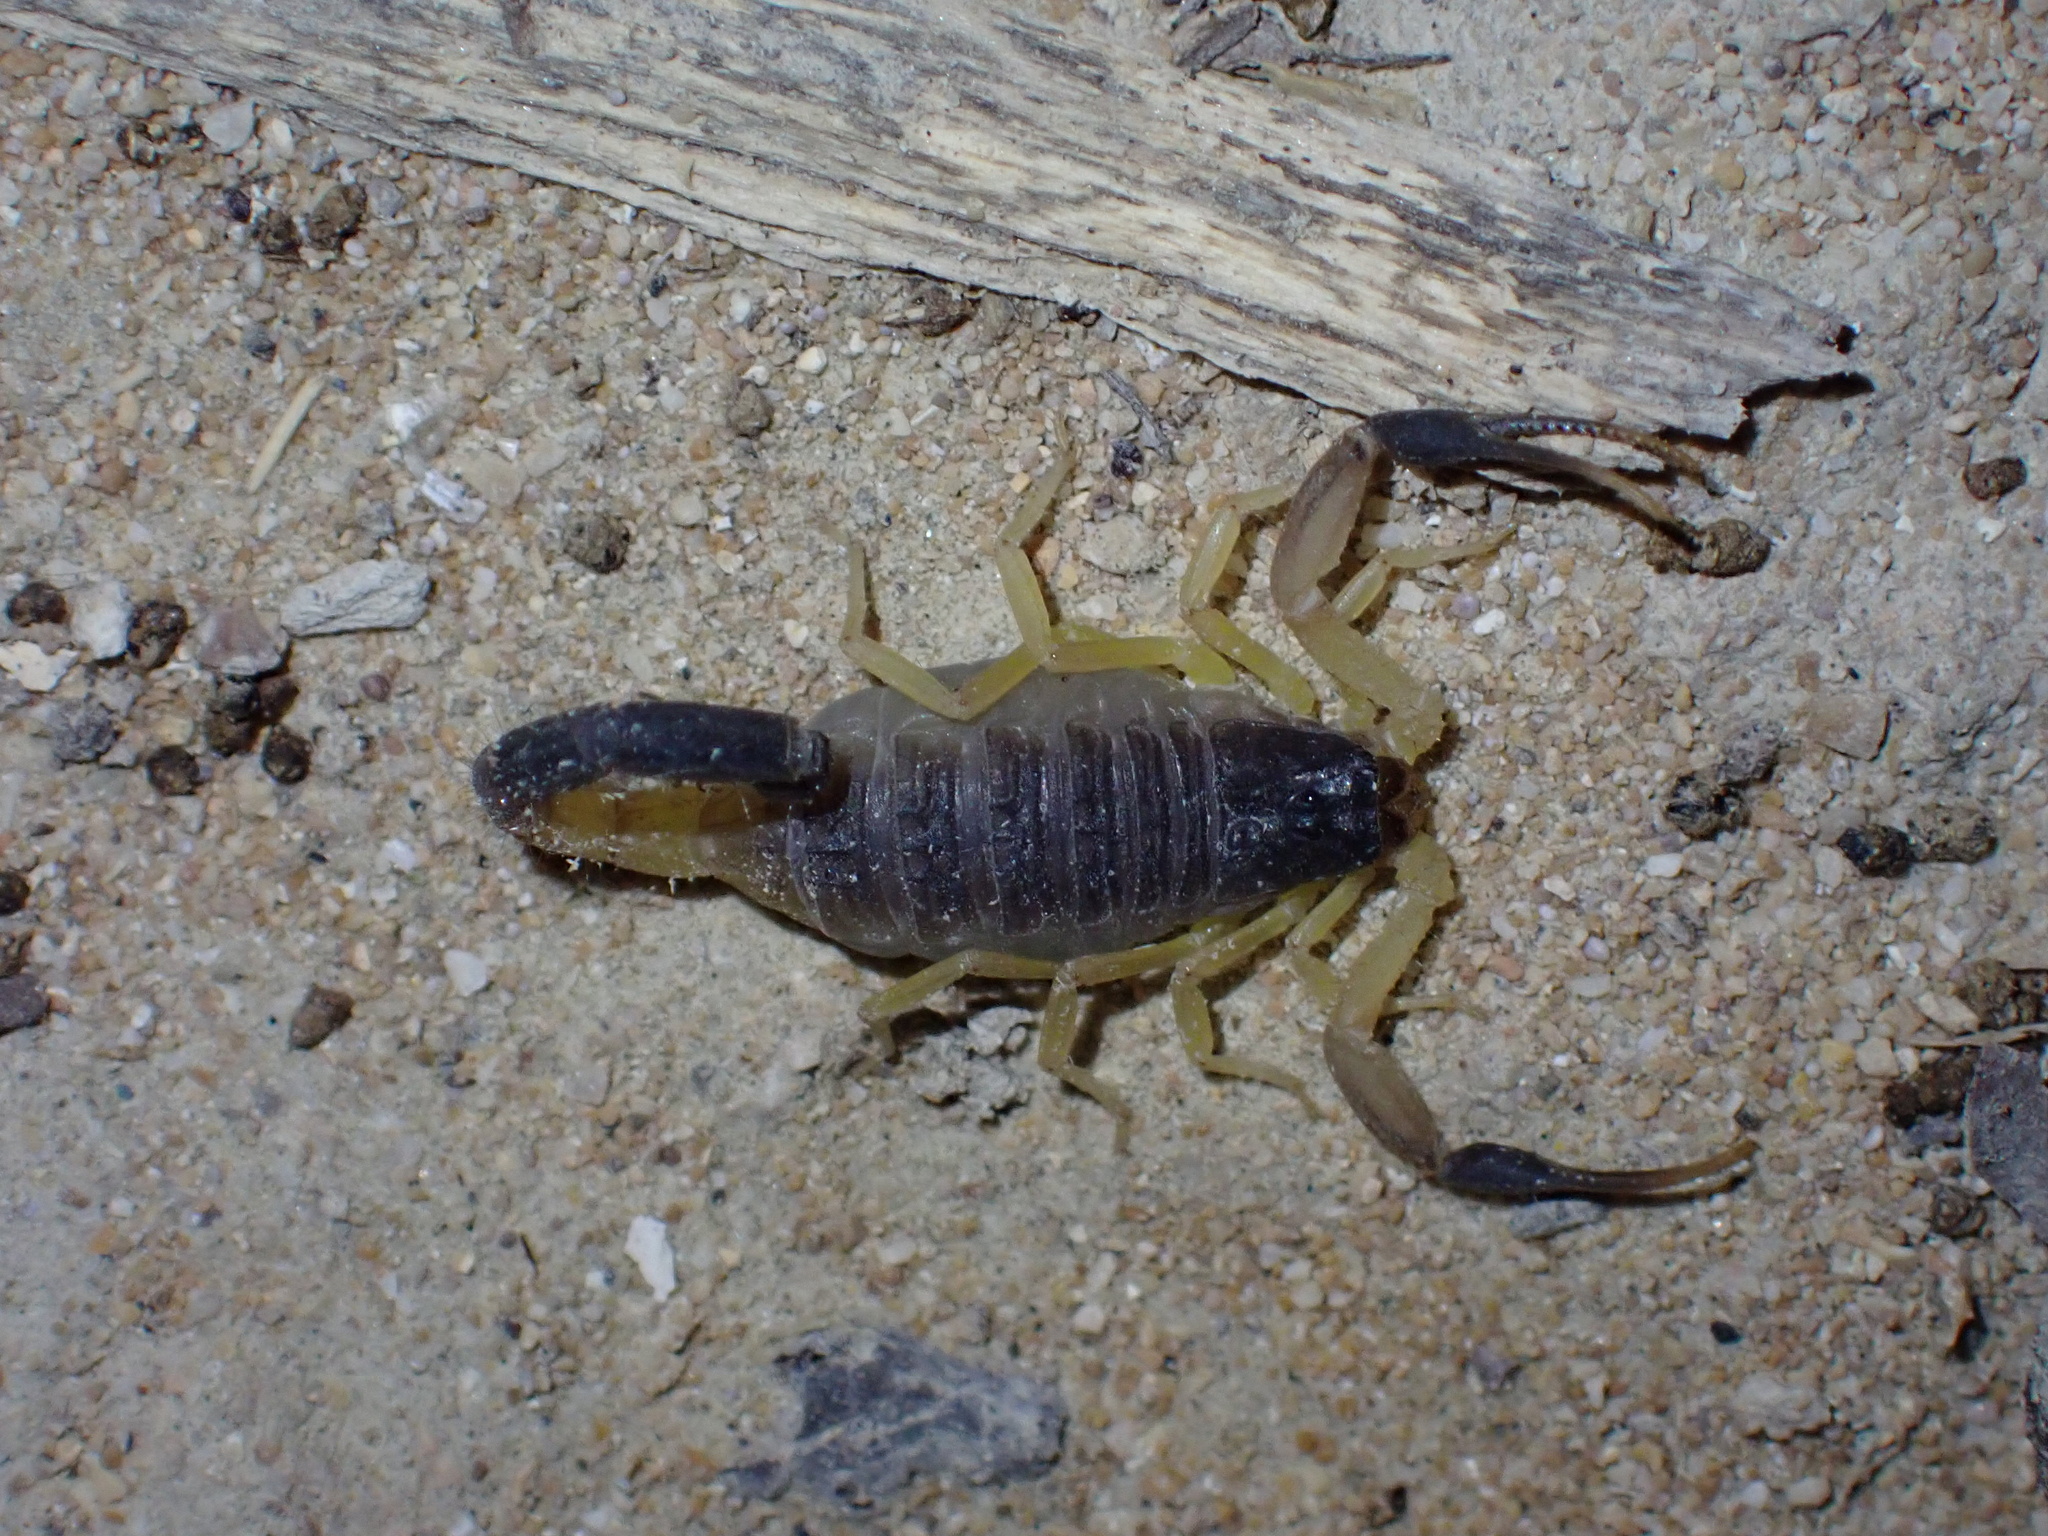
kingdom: Animalia
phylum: Arthropoda
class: Arachnida
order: Scorpiones
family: Buthidae
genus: Hottentotta
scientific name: Hottentotta jayakari
